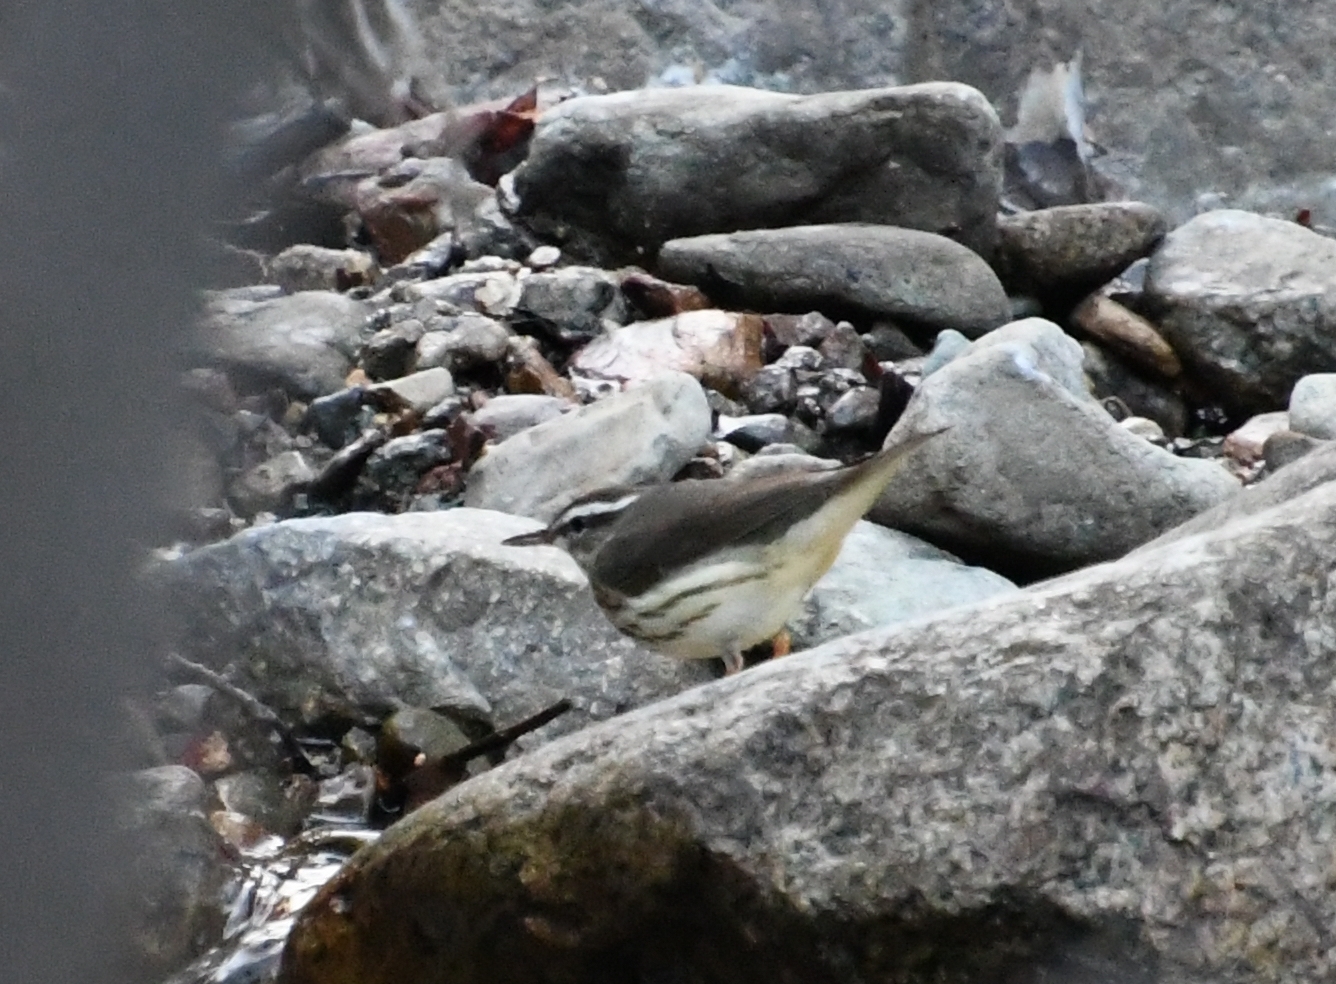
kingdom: Animalia
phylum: Chordata
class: Aves
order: Passeriformes
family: Parulidae
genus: Parkesia
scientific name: Parkesia motacilla
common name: Louisiana waterthrush
